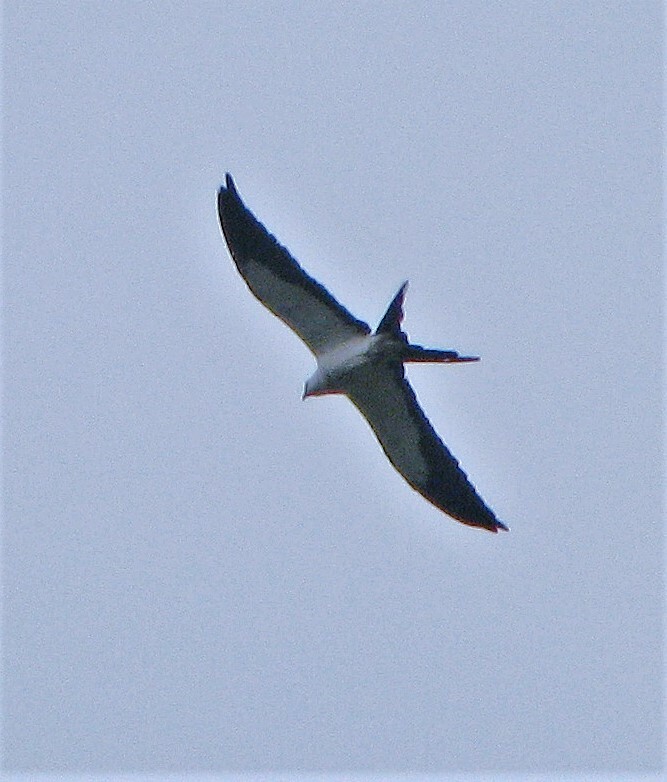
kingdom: Animalia
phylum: Chordata
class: Aves
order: Accipitriformes
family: Accipitridae
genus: Elanoides
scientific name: Elanoides forficatus
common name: Swallow-tailed kite
